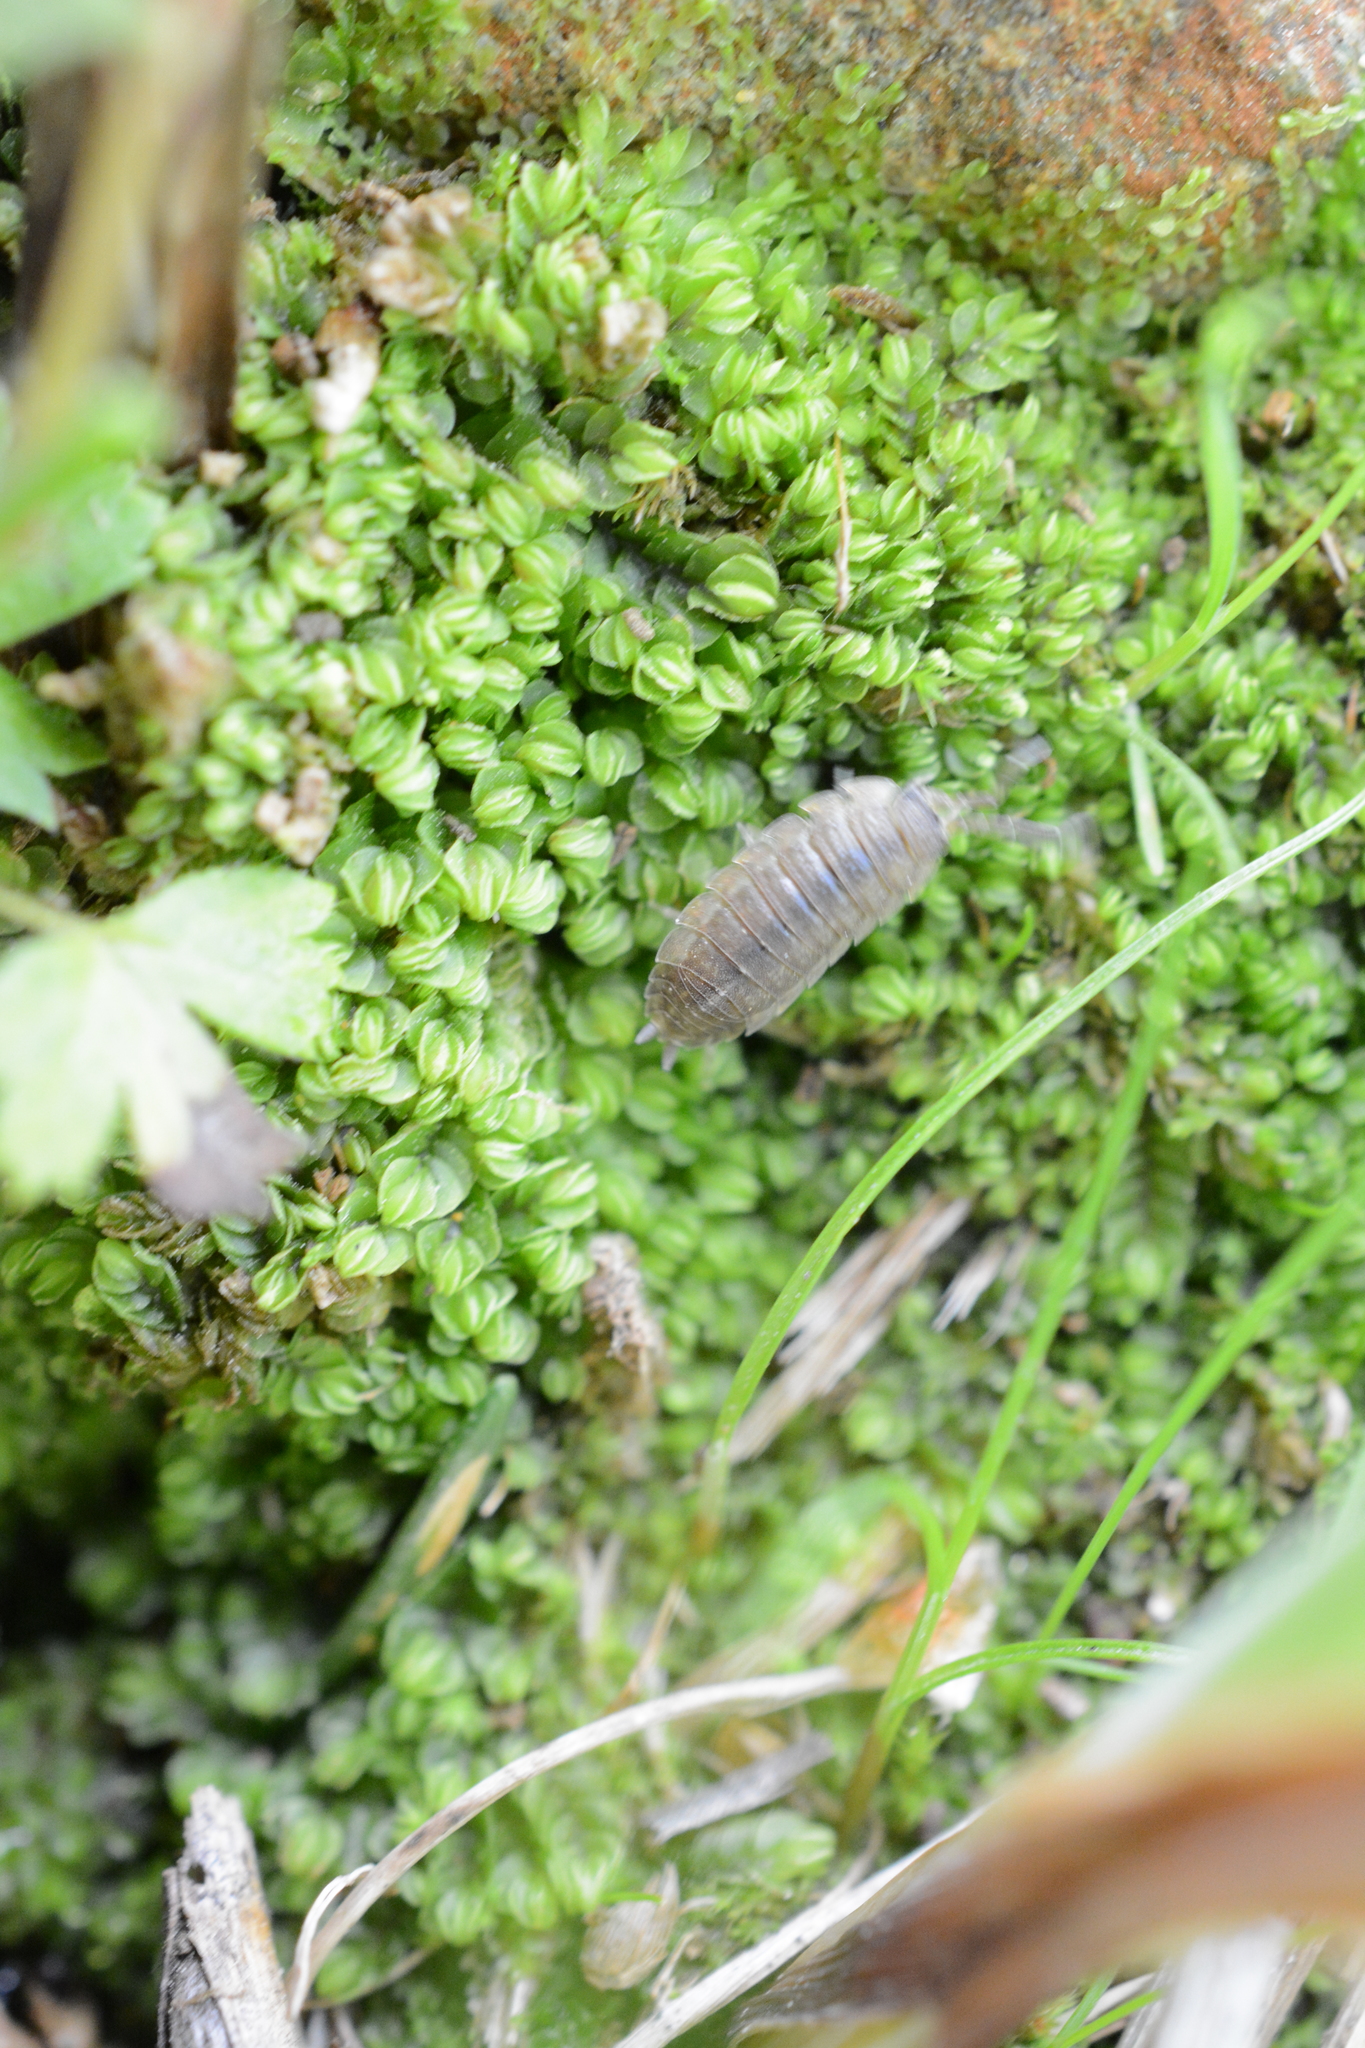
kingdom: Animalia
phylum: Arthropoda
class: Malacostraca
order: Isopoda
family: Porcellionidae
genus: Porcellio
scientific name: Porcellio scaber
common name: Common rough woodlouse
